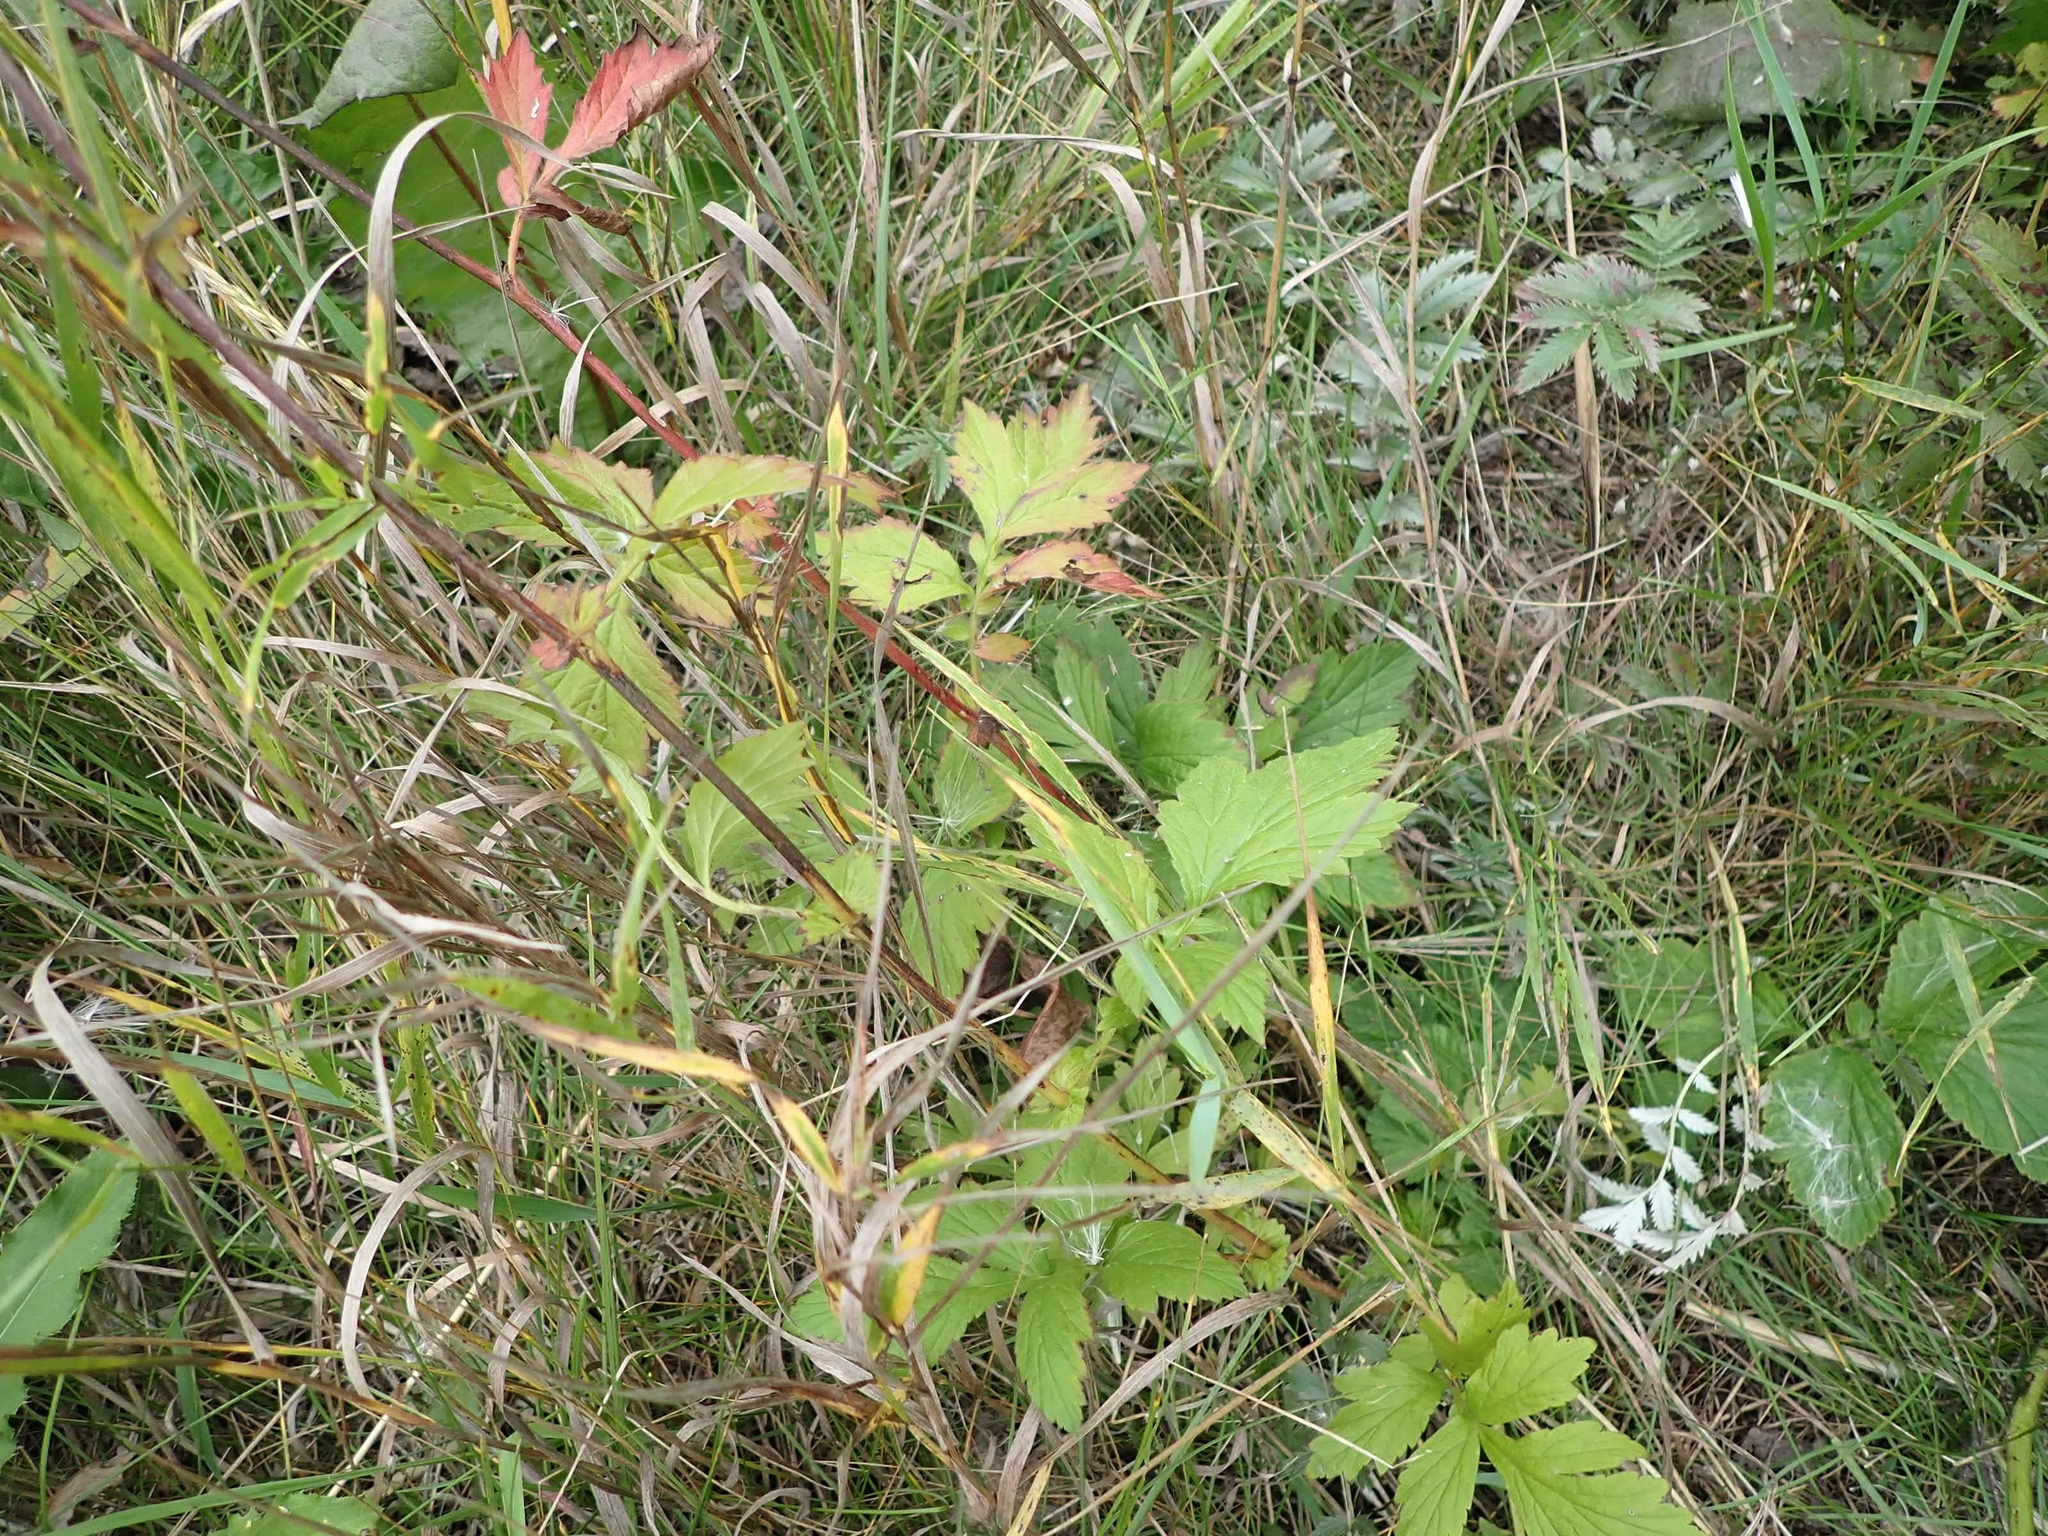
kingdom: Plantae
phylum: Tracheophyta
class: Magnoliopsida
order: Rosales
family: Rosaceae
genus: Geum
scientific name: Geum aleppicum
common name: Yellow avens
